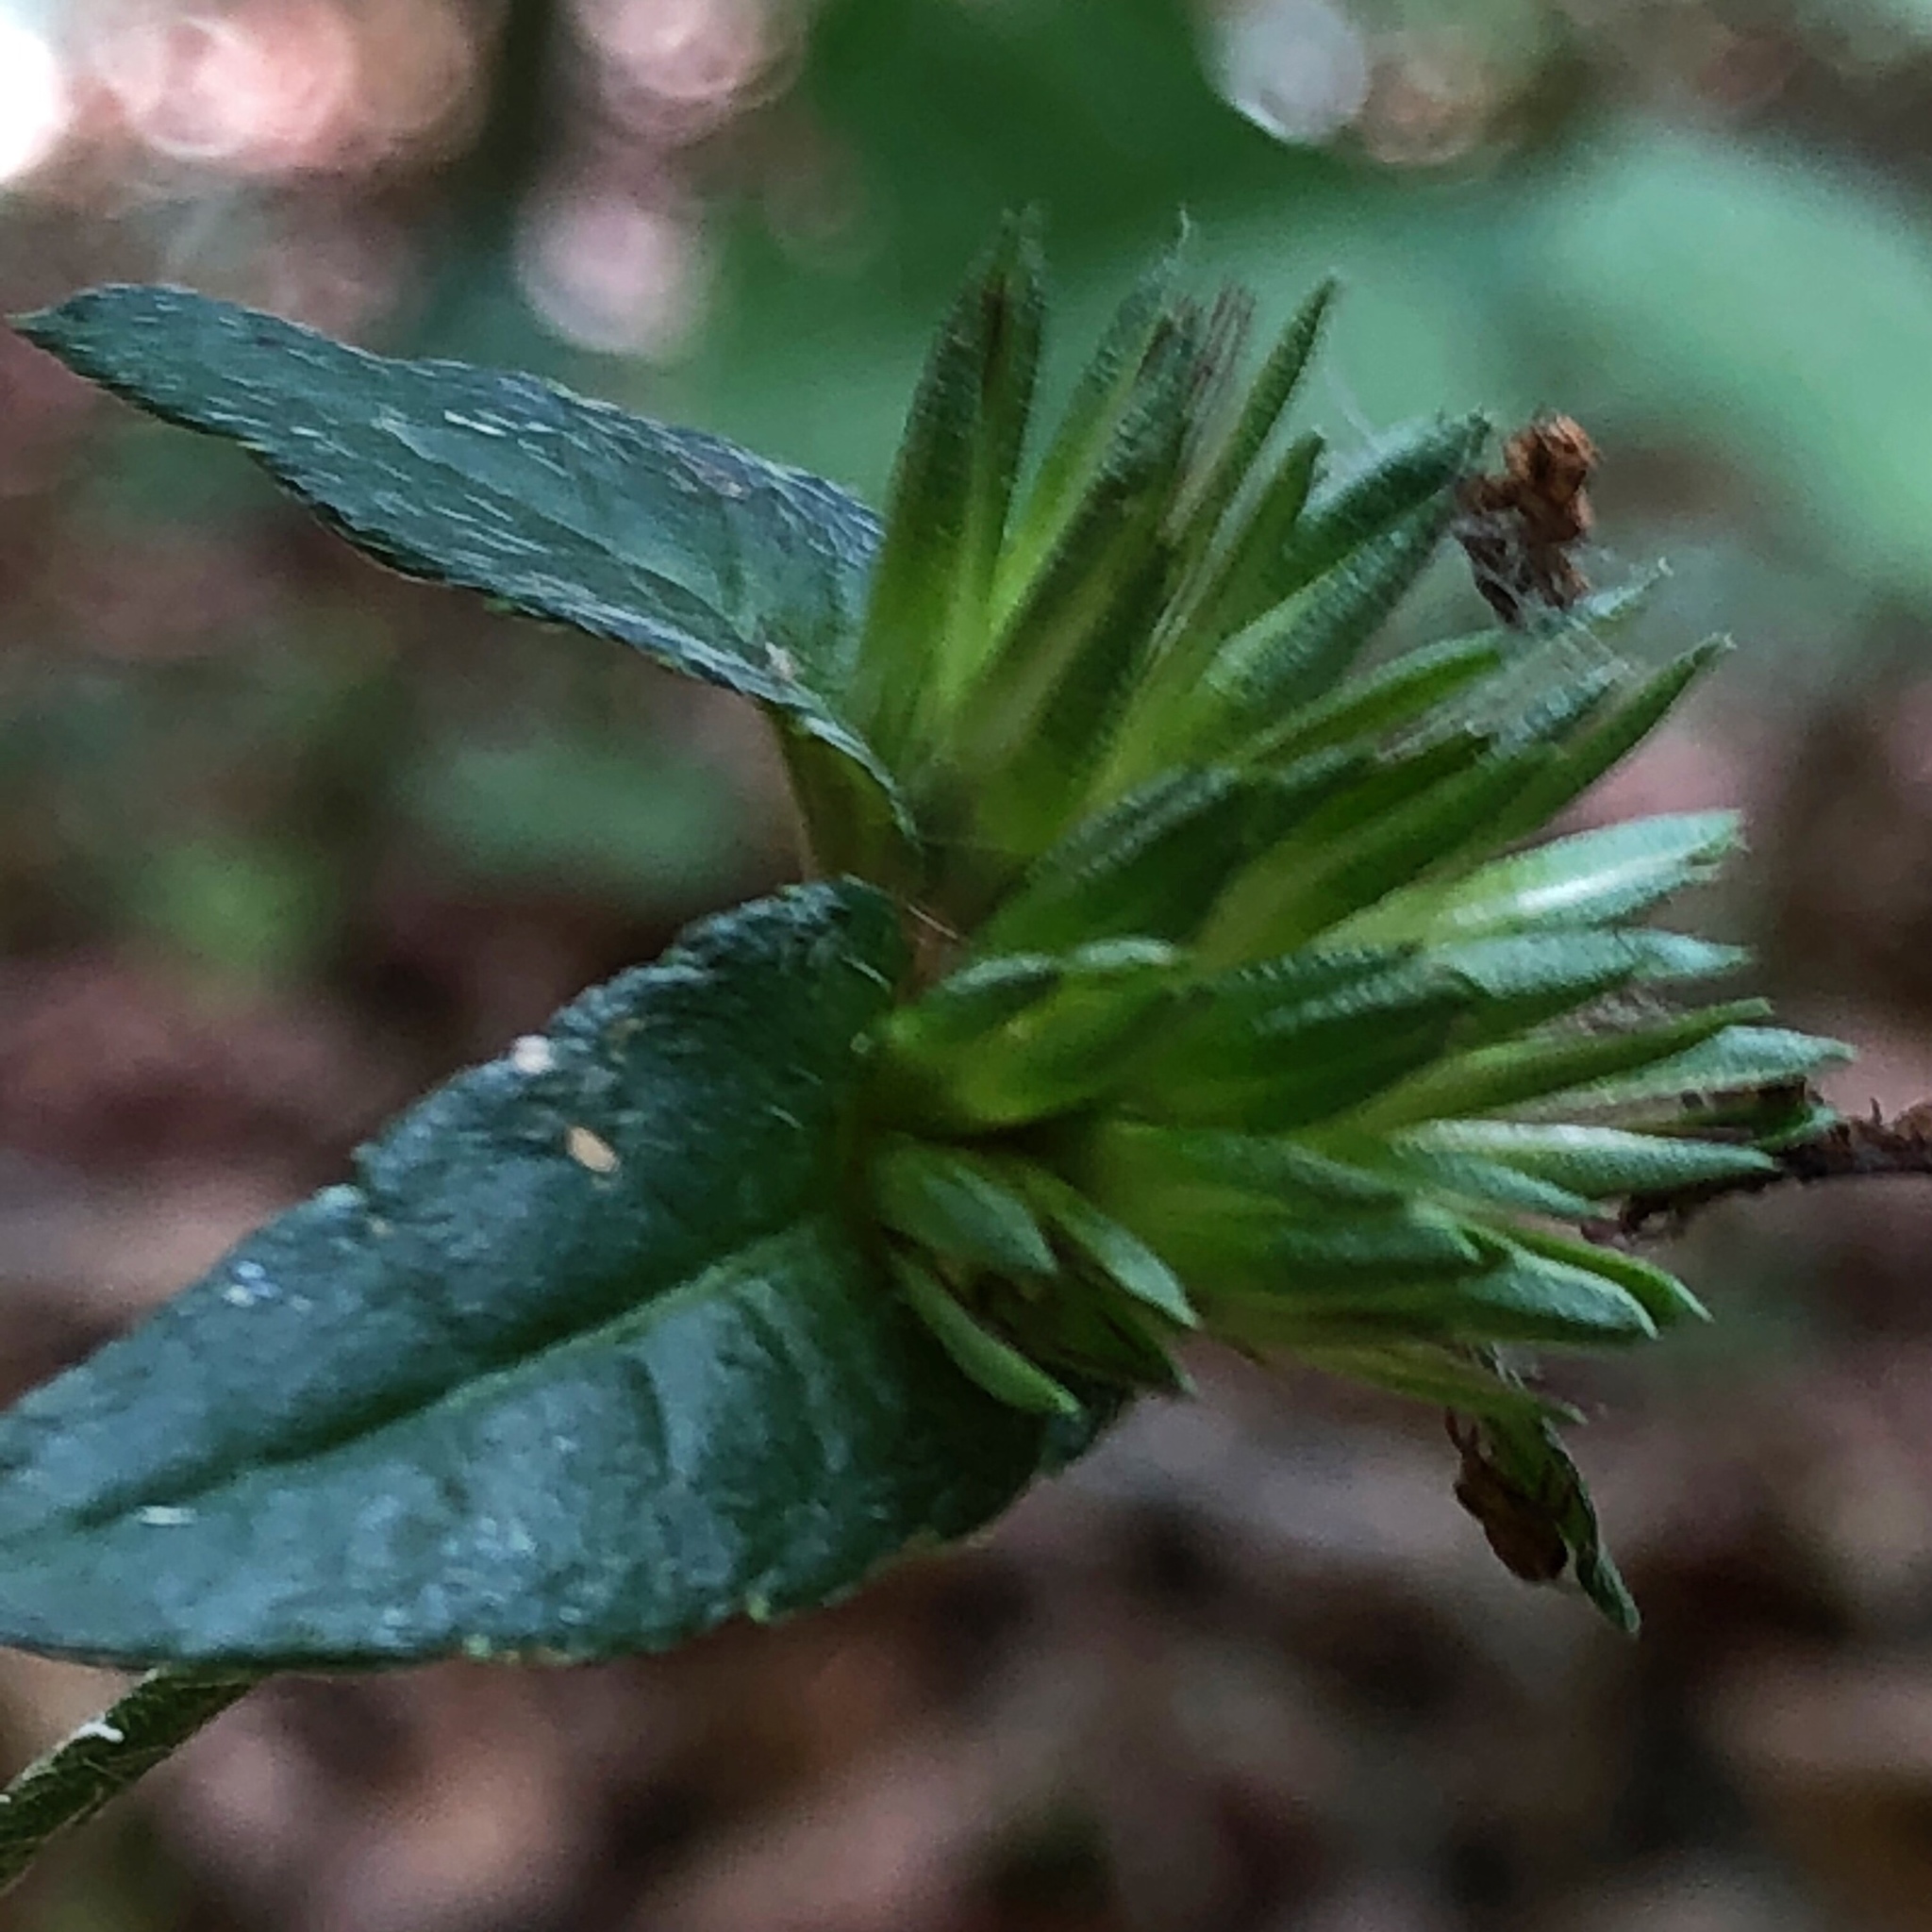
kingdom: Plantae
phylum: Tracheophyta
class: Magnoliopsida
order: Asterales
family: Asteraceae
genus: Elephantopus
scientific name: Elephantopus carolinianus
